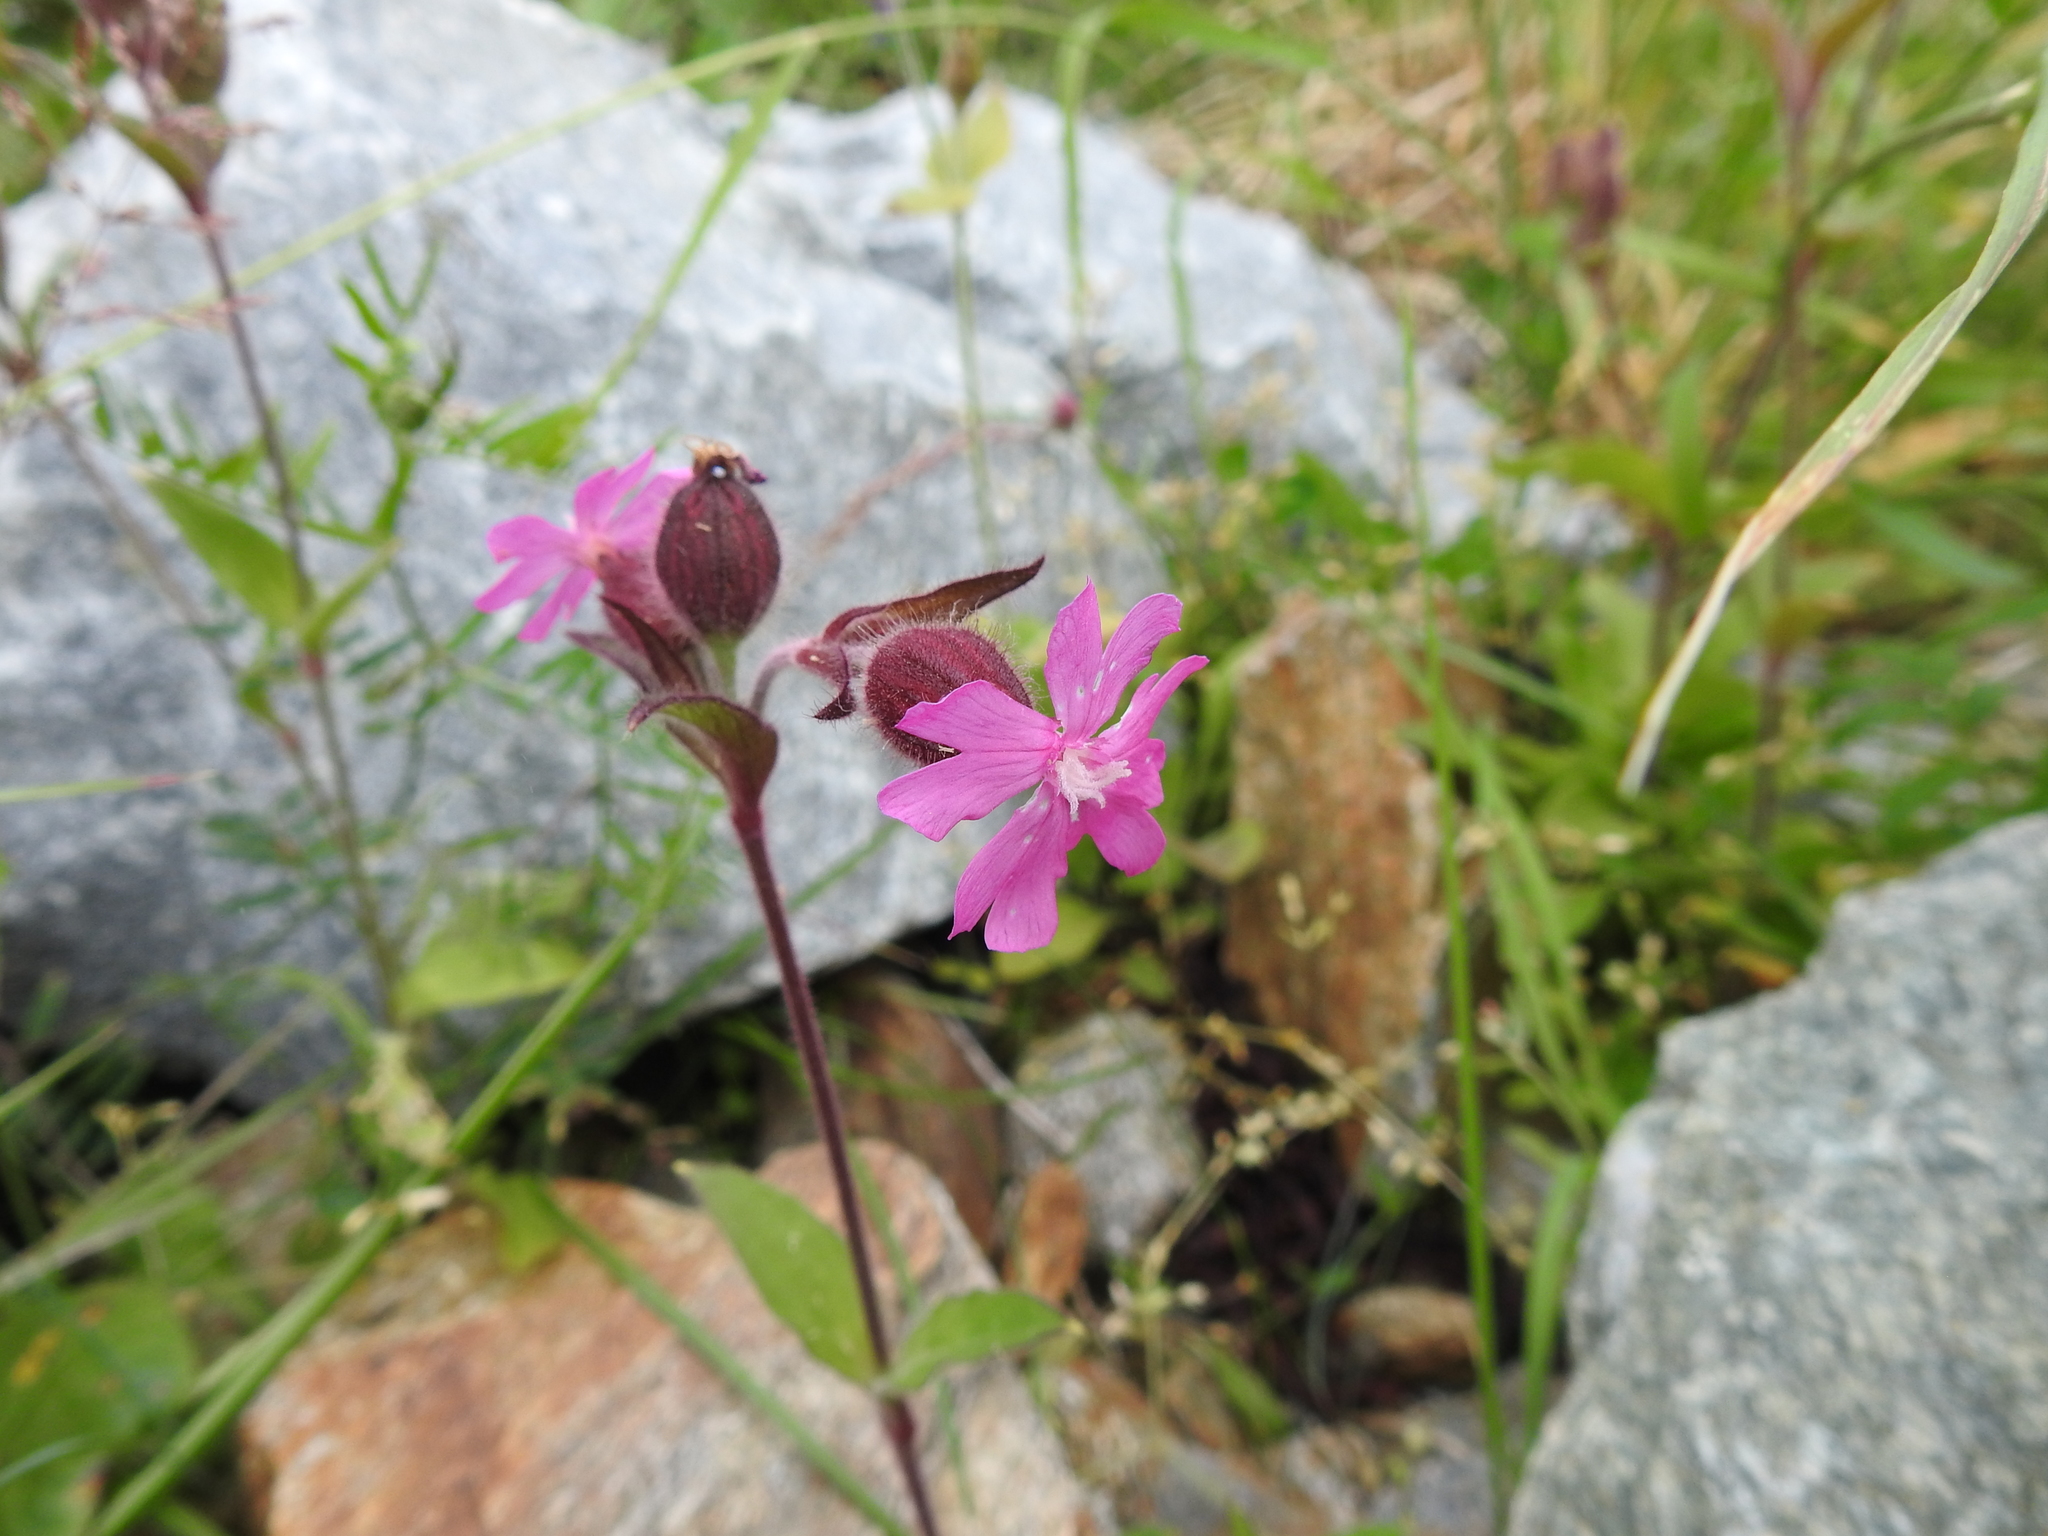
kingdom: Plantae
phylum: Tracheophyta
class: Magnoliopsida
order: Caryophyllales
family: Caryophyllaceae
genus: Silene
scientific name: Silene dioica
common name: Red campion
